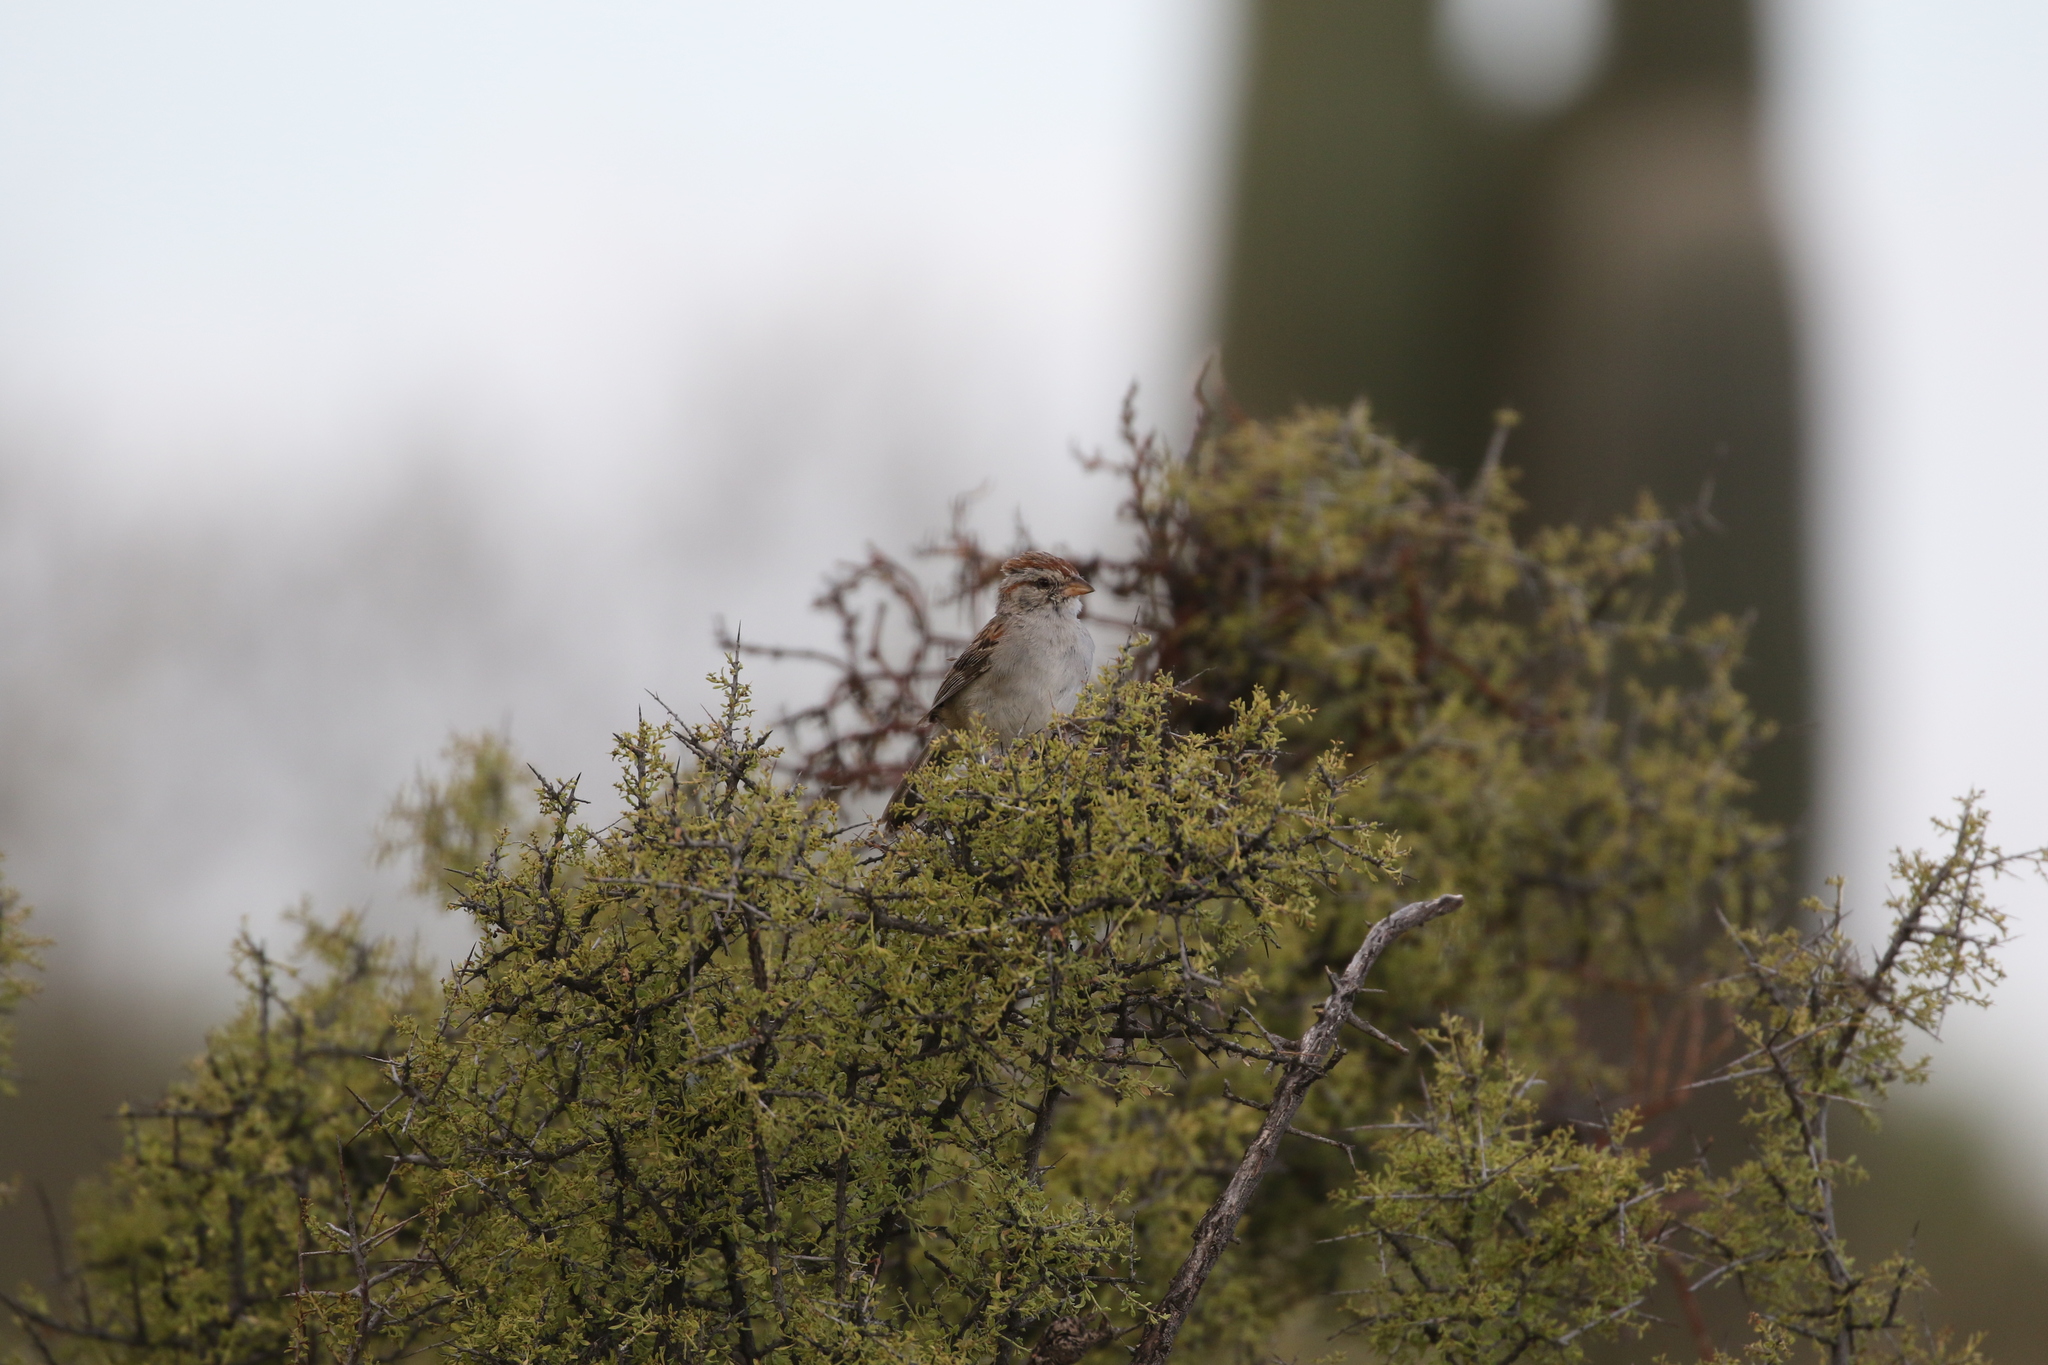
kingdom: Animalia
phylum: Chordata
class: Aves
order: Passeriformes
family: Passerellidae
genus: Peucaea
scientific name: Peucaea carpalis
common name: Rufous-winged sparrow
